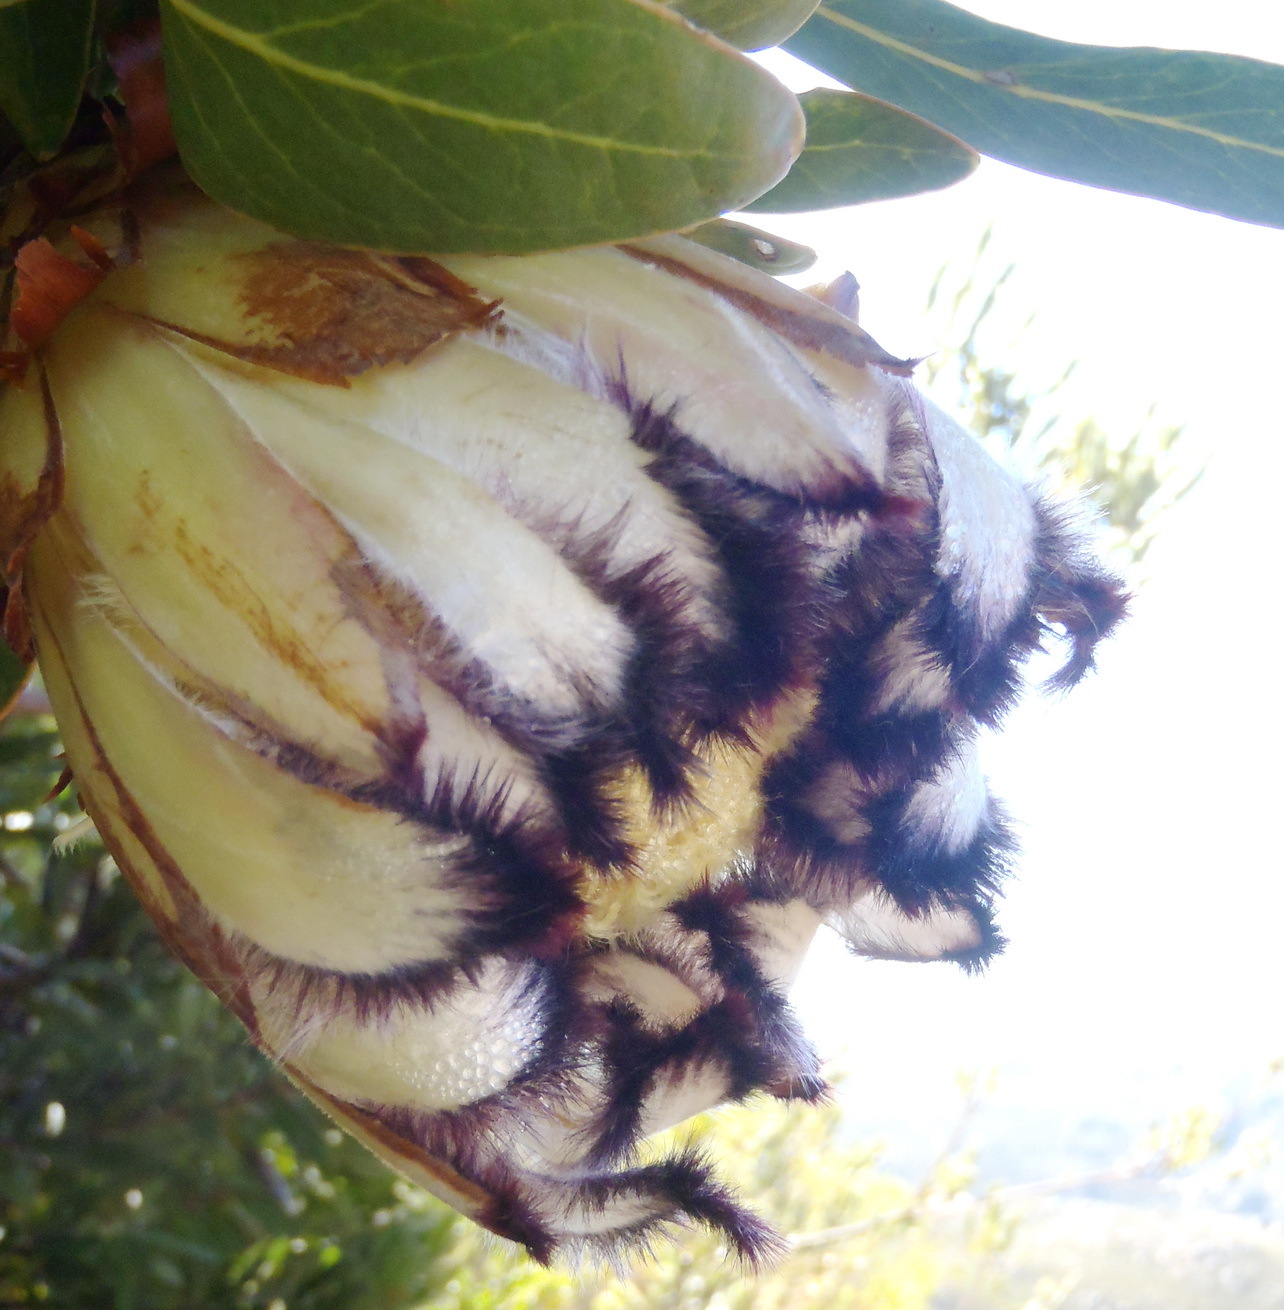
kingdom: Plantae
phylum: Tracheophyta
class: Magnoliopsida
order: Proteales
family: Proteaceae
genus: Protea
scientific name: Protea neriifolia
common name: Blue sugarbush
